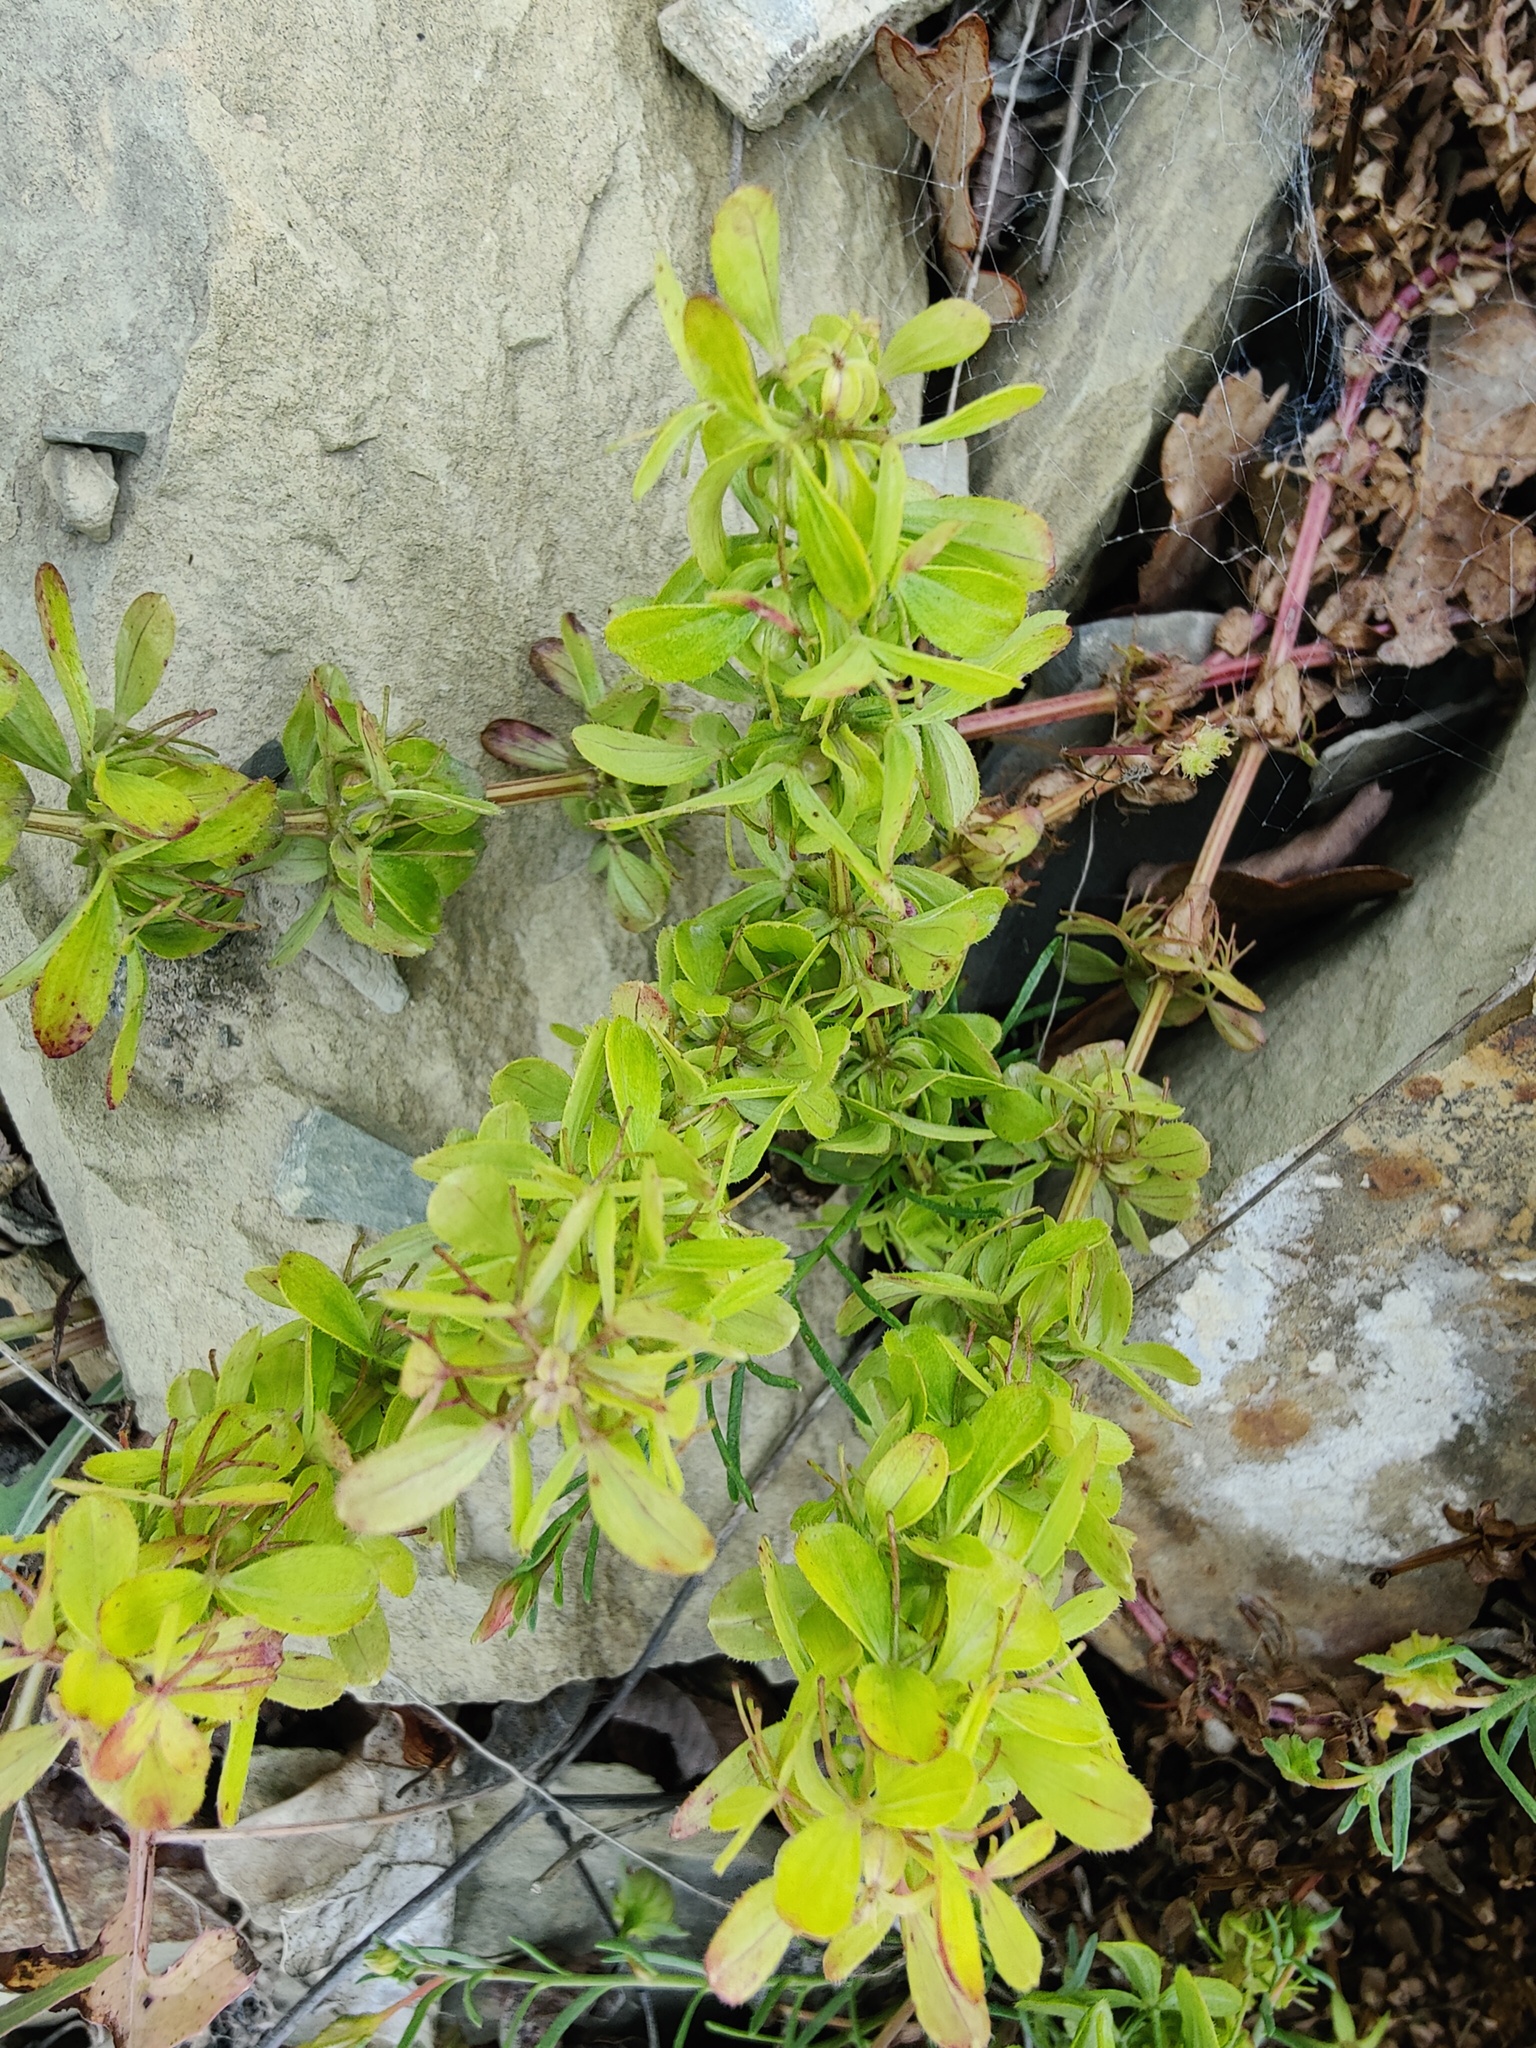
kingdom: Plantae
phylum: Tracheophyta
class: Magnoliopsida
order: Gentianales
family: Rubiaceae
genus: Cruciata
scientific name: Cruciata taurica
